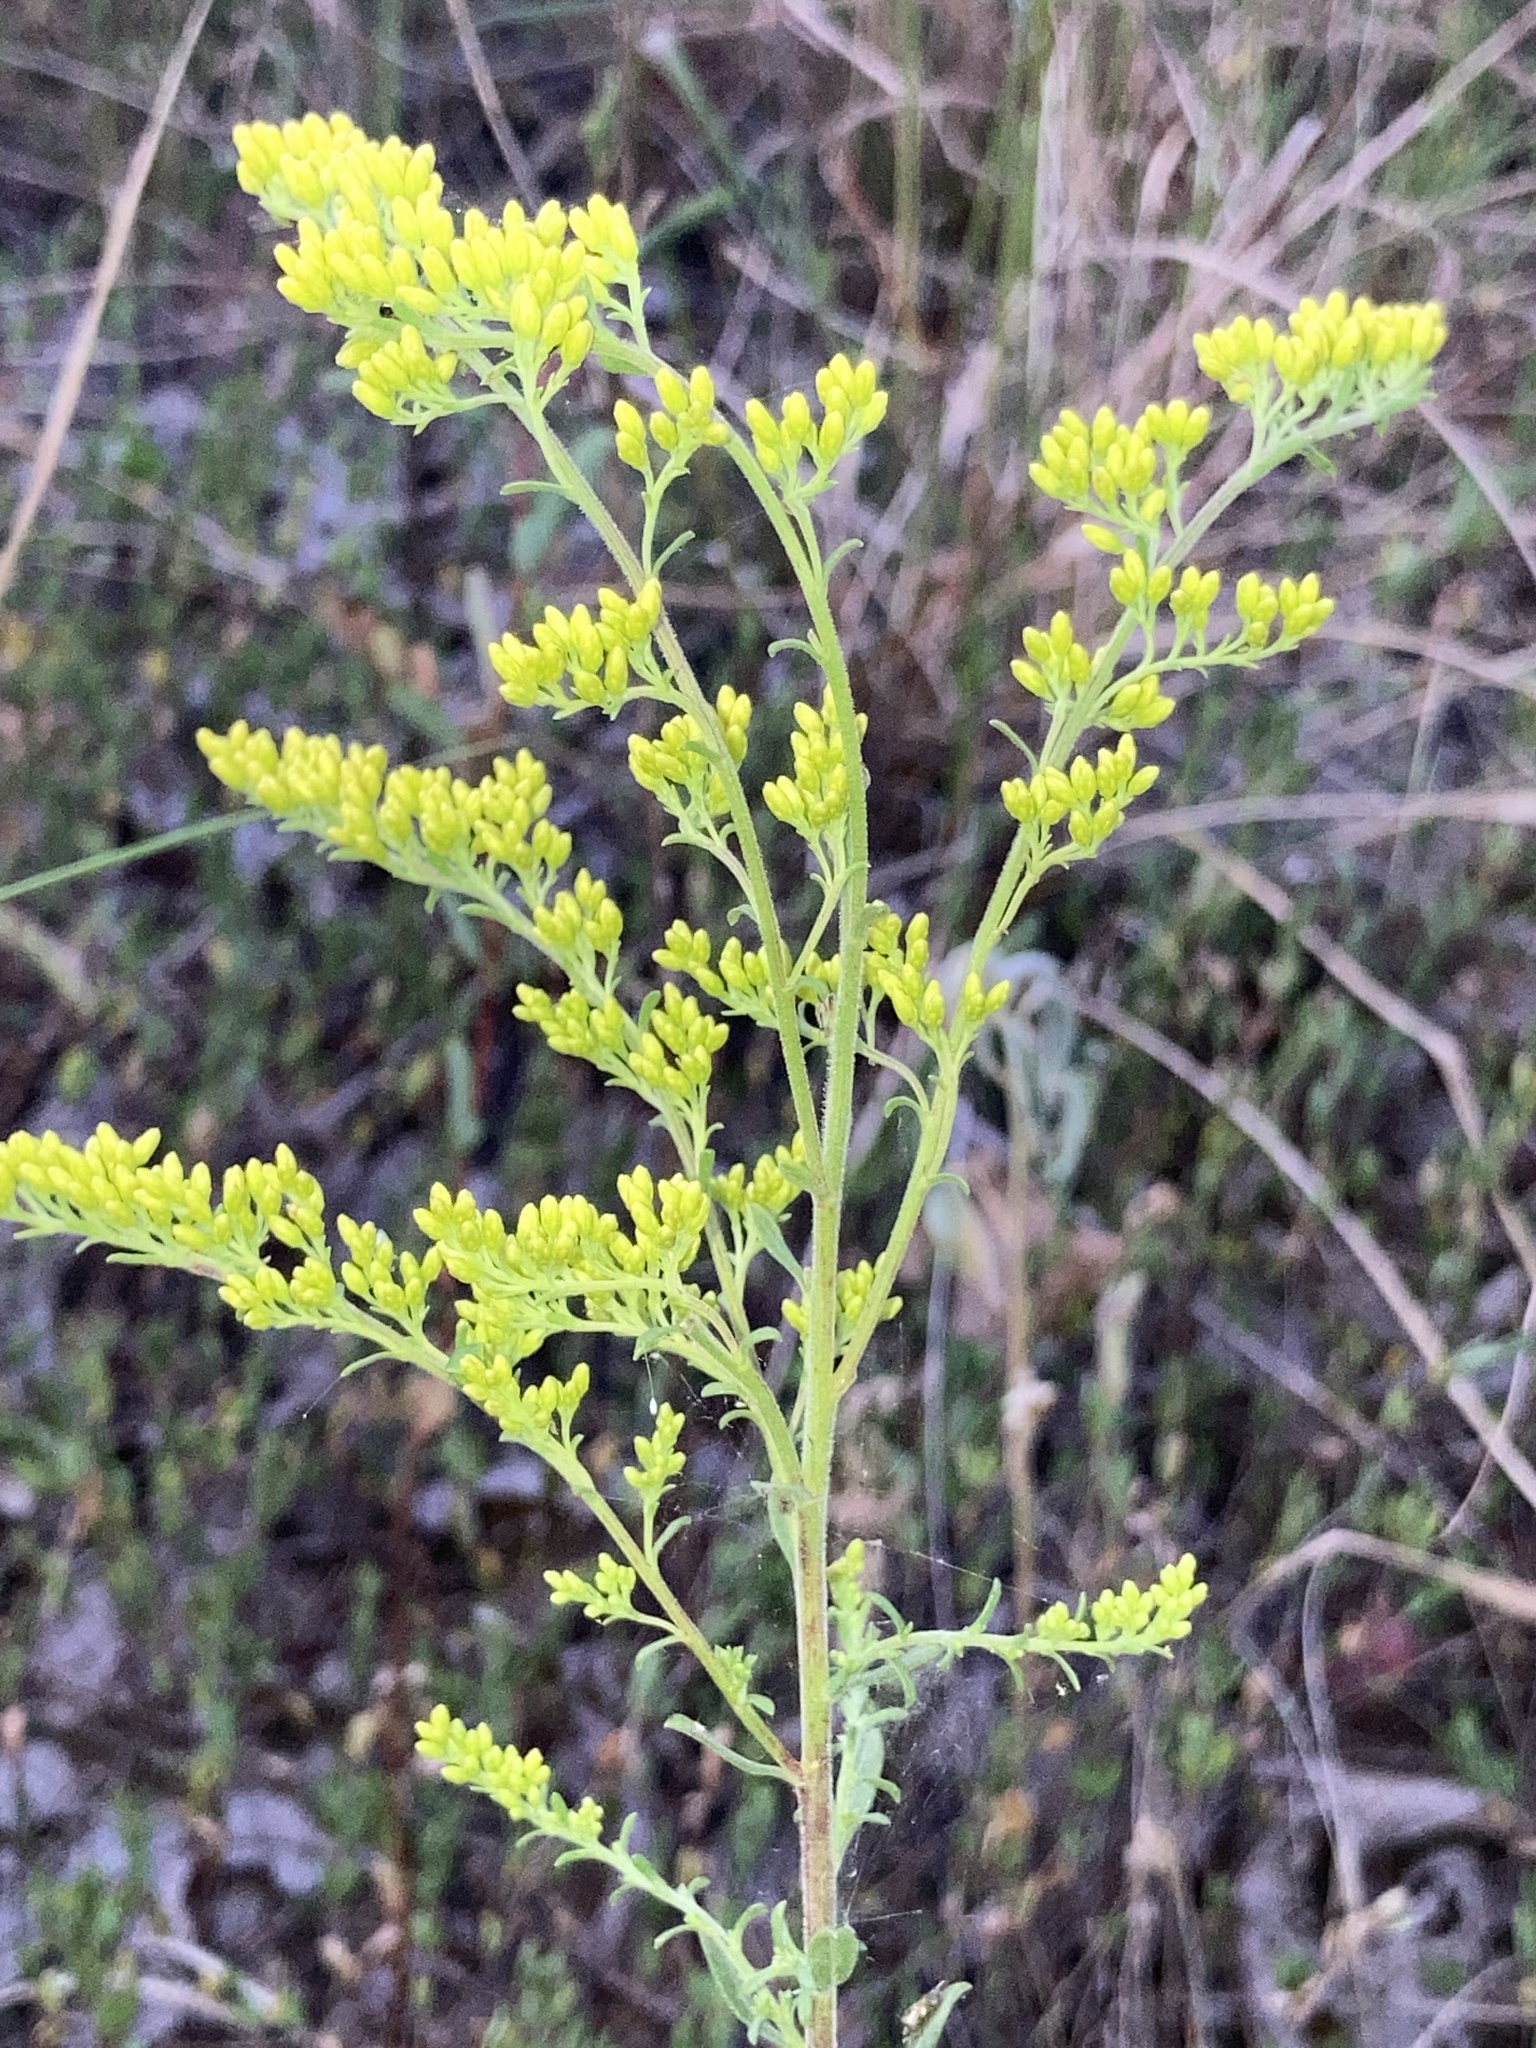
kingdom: Plantae
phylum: Tracheophyta
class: Magnoliopsida
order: Asterales
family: Asteraceae
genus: Solidago
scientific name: Solidago nemoralis
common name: Grey goldenrod
